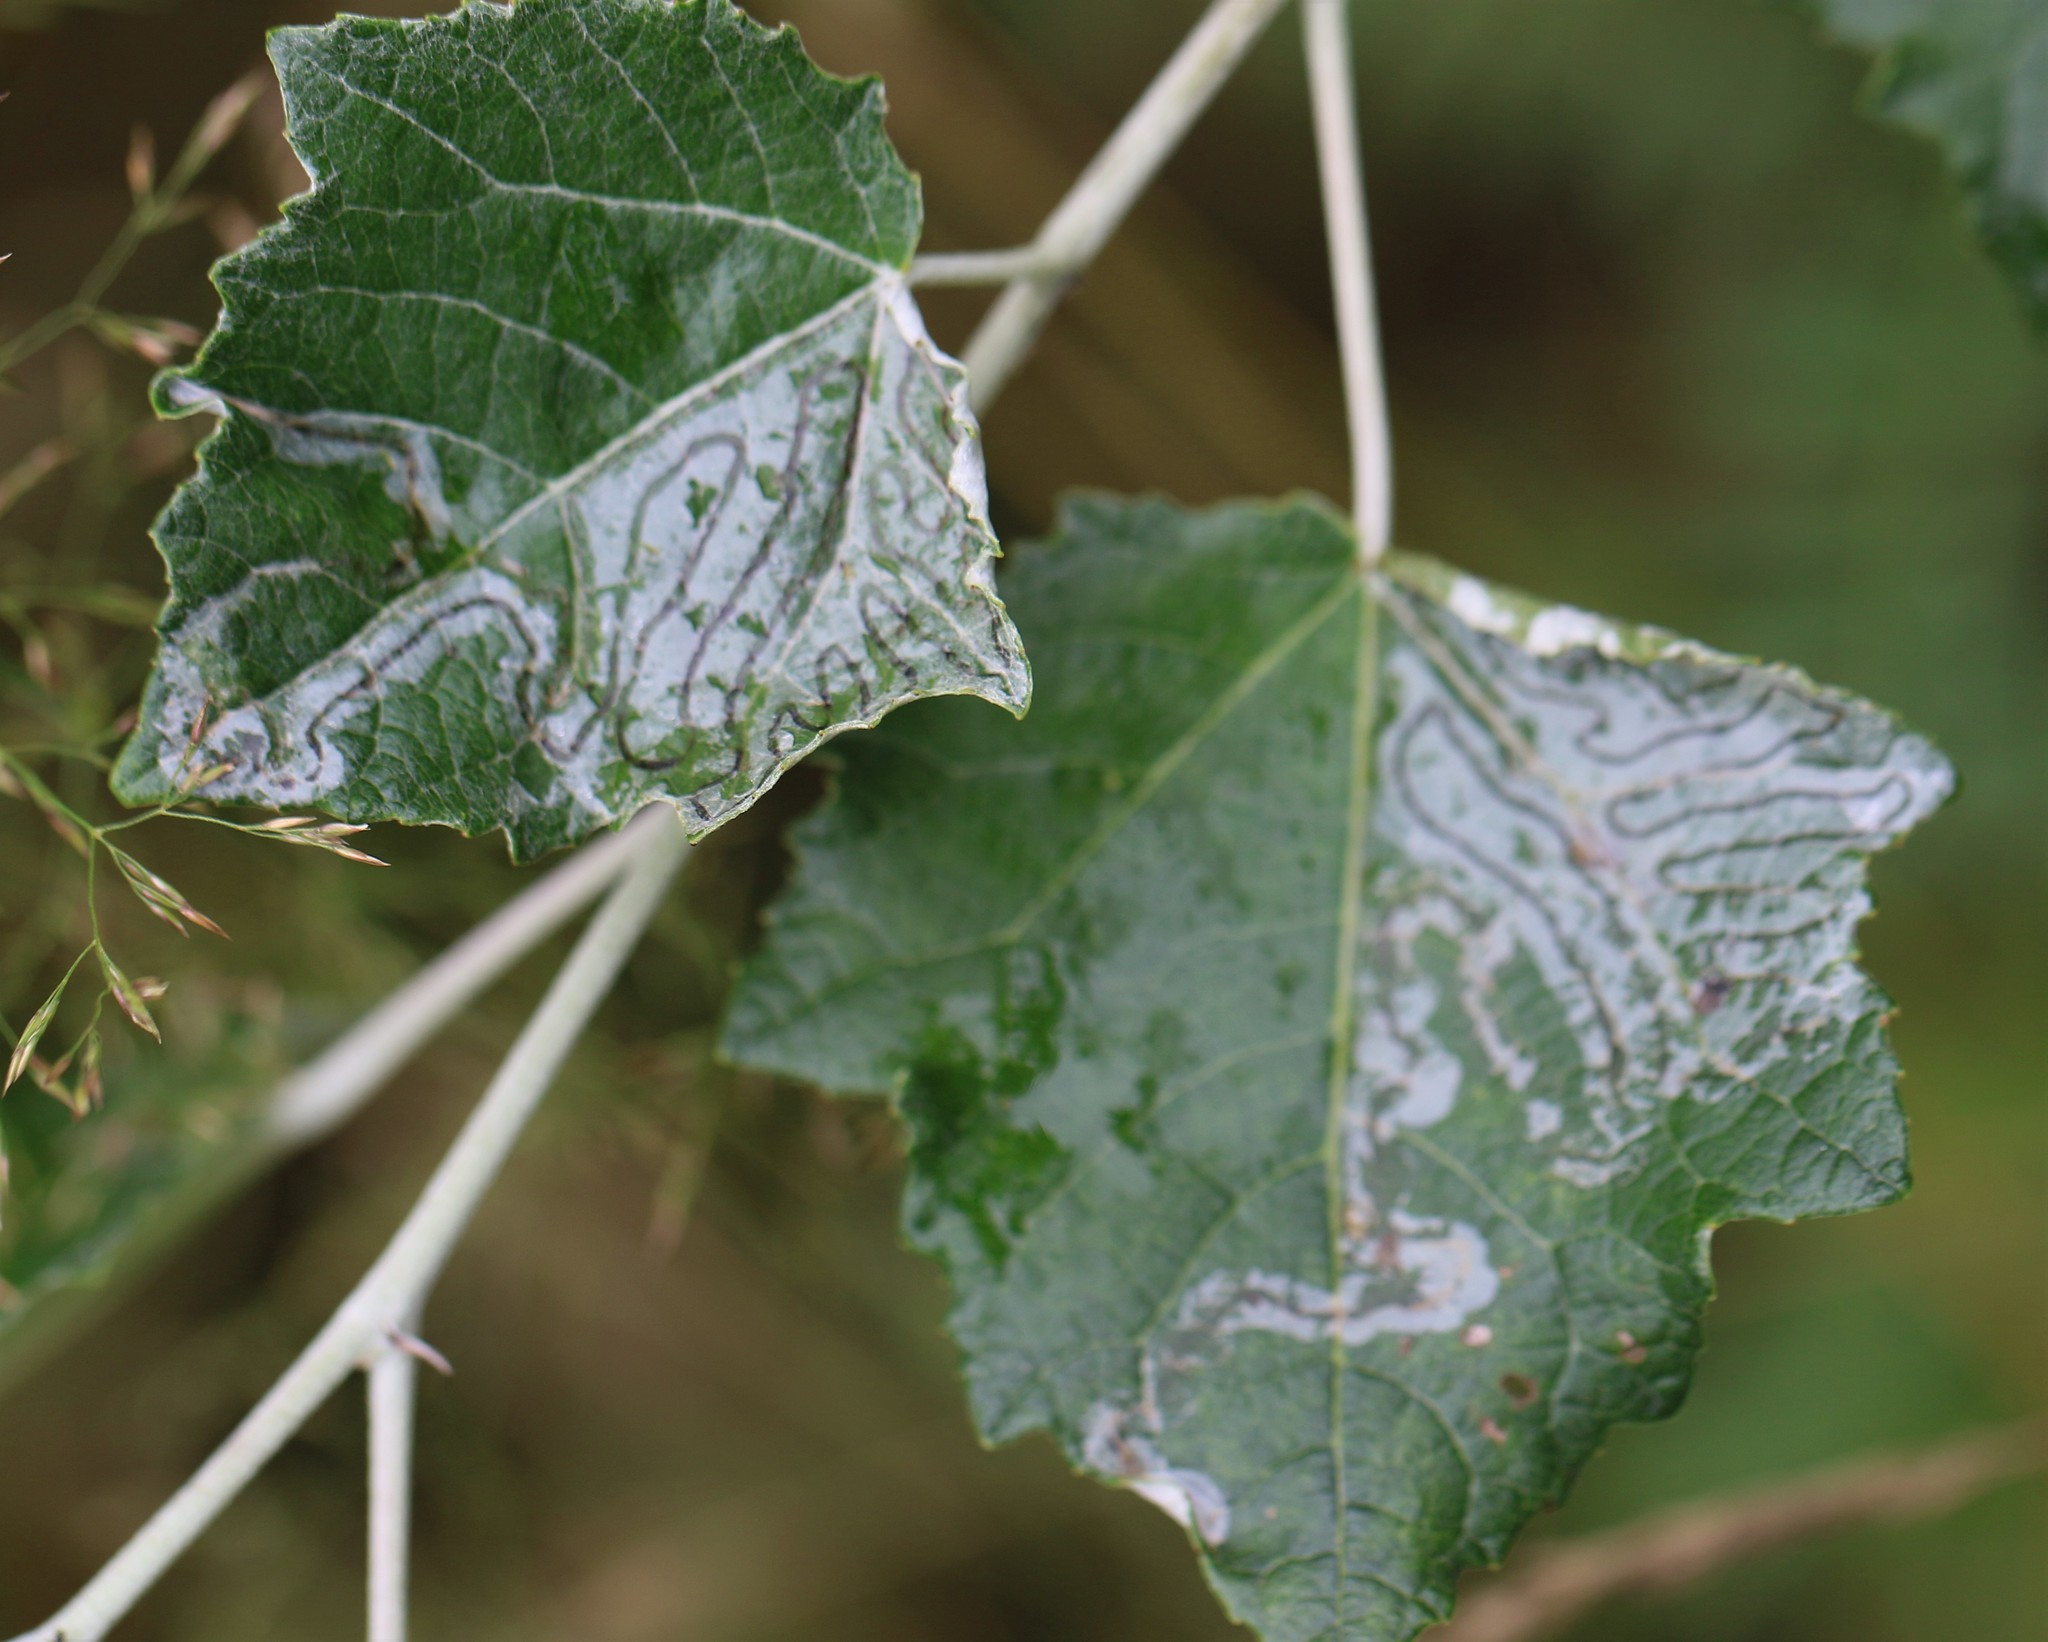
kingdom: Animalia
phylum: Arthropoda
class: Insecta
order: Lepidoptera
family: Gracillariidae
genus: Phyllocnistis
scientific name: Phyllocnistis populiella
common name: Aspen serpentine leafminer moth
